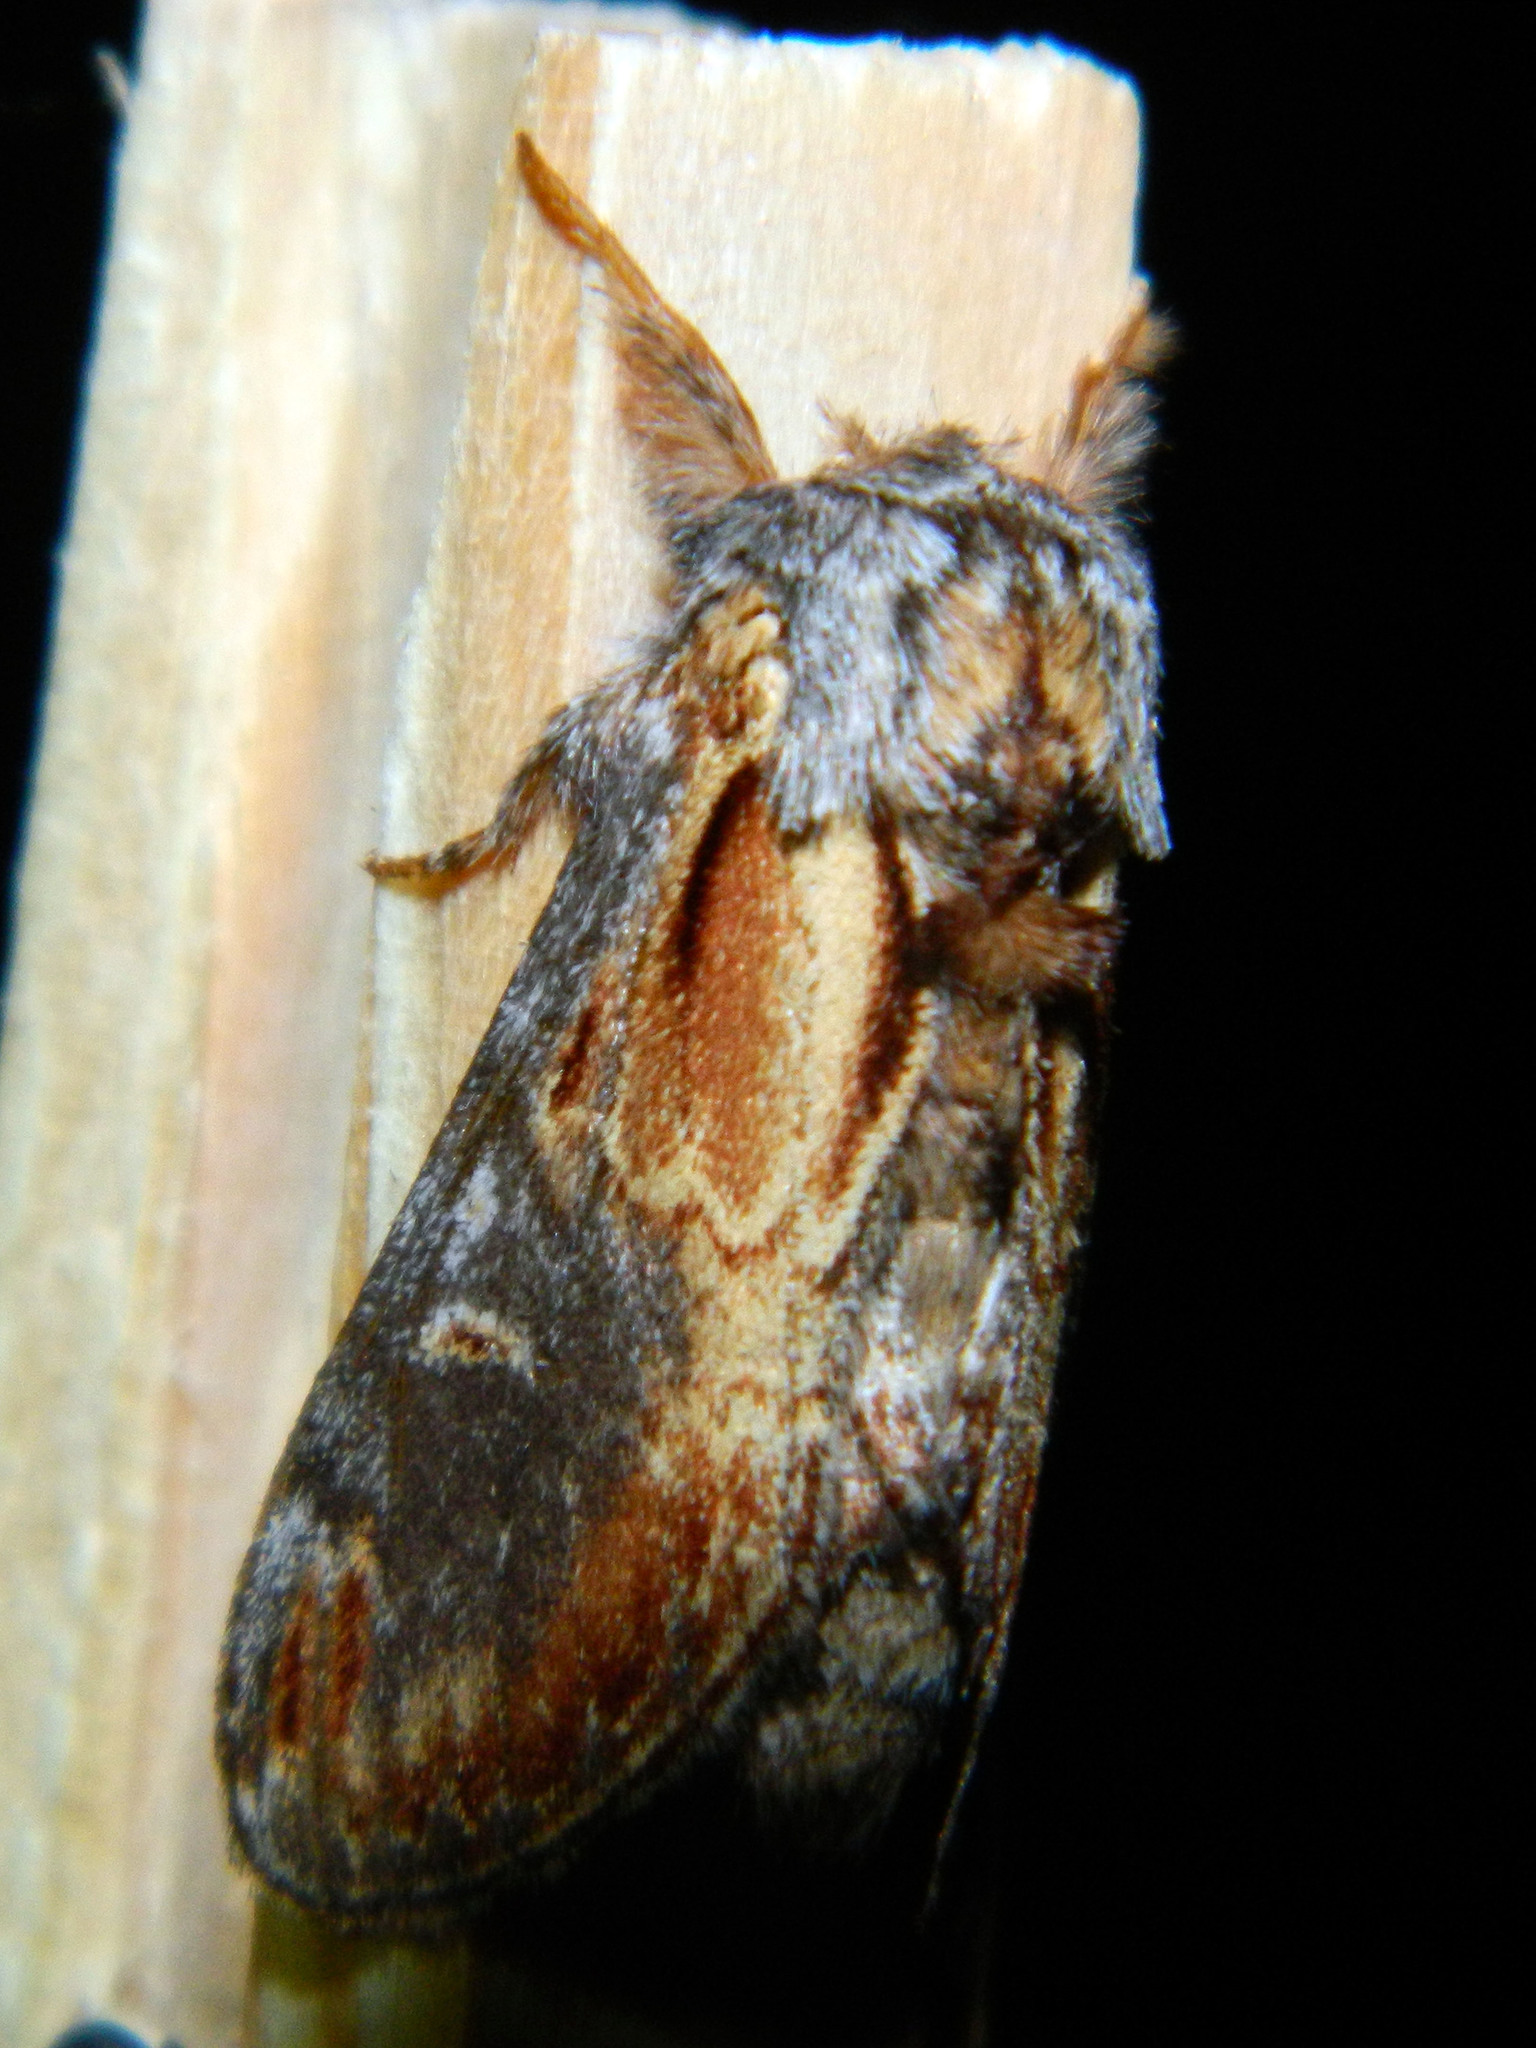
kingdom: Animalia
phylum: Arthropoda
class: Insecta
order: Lepidoptera
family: Notodontidae
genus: Notodonta
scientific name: Notodonta scitipennis
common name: Finned-willow prominent moth
